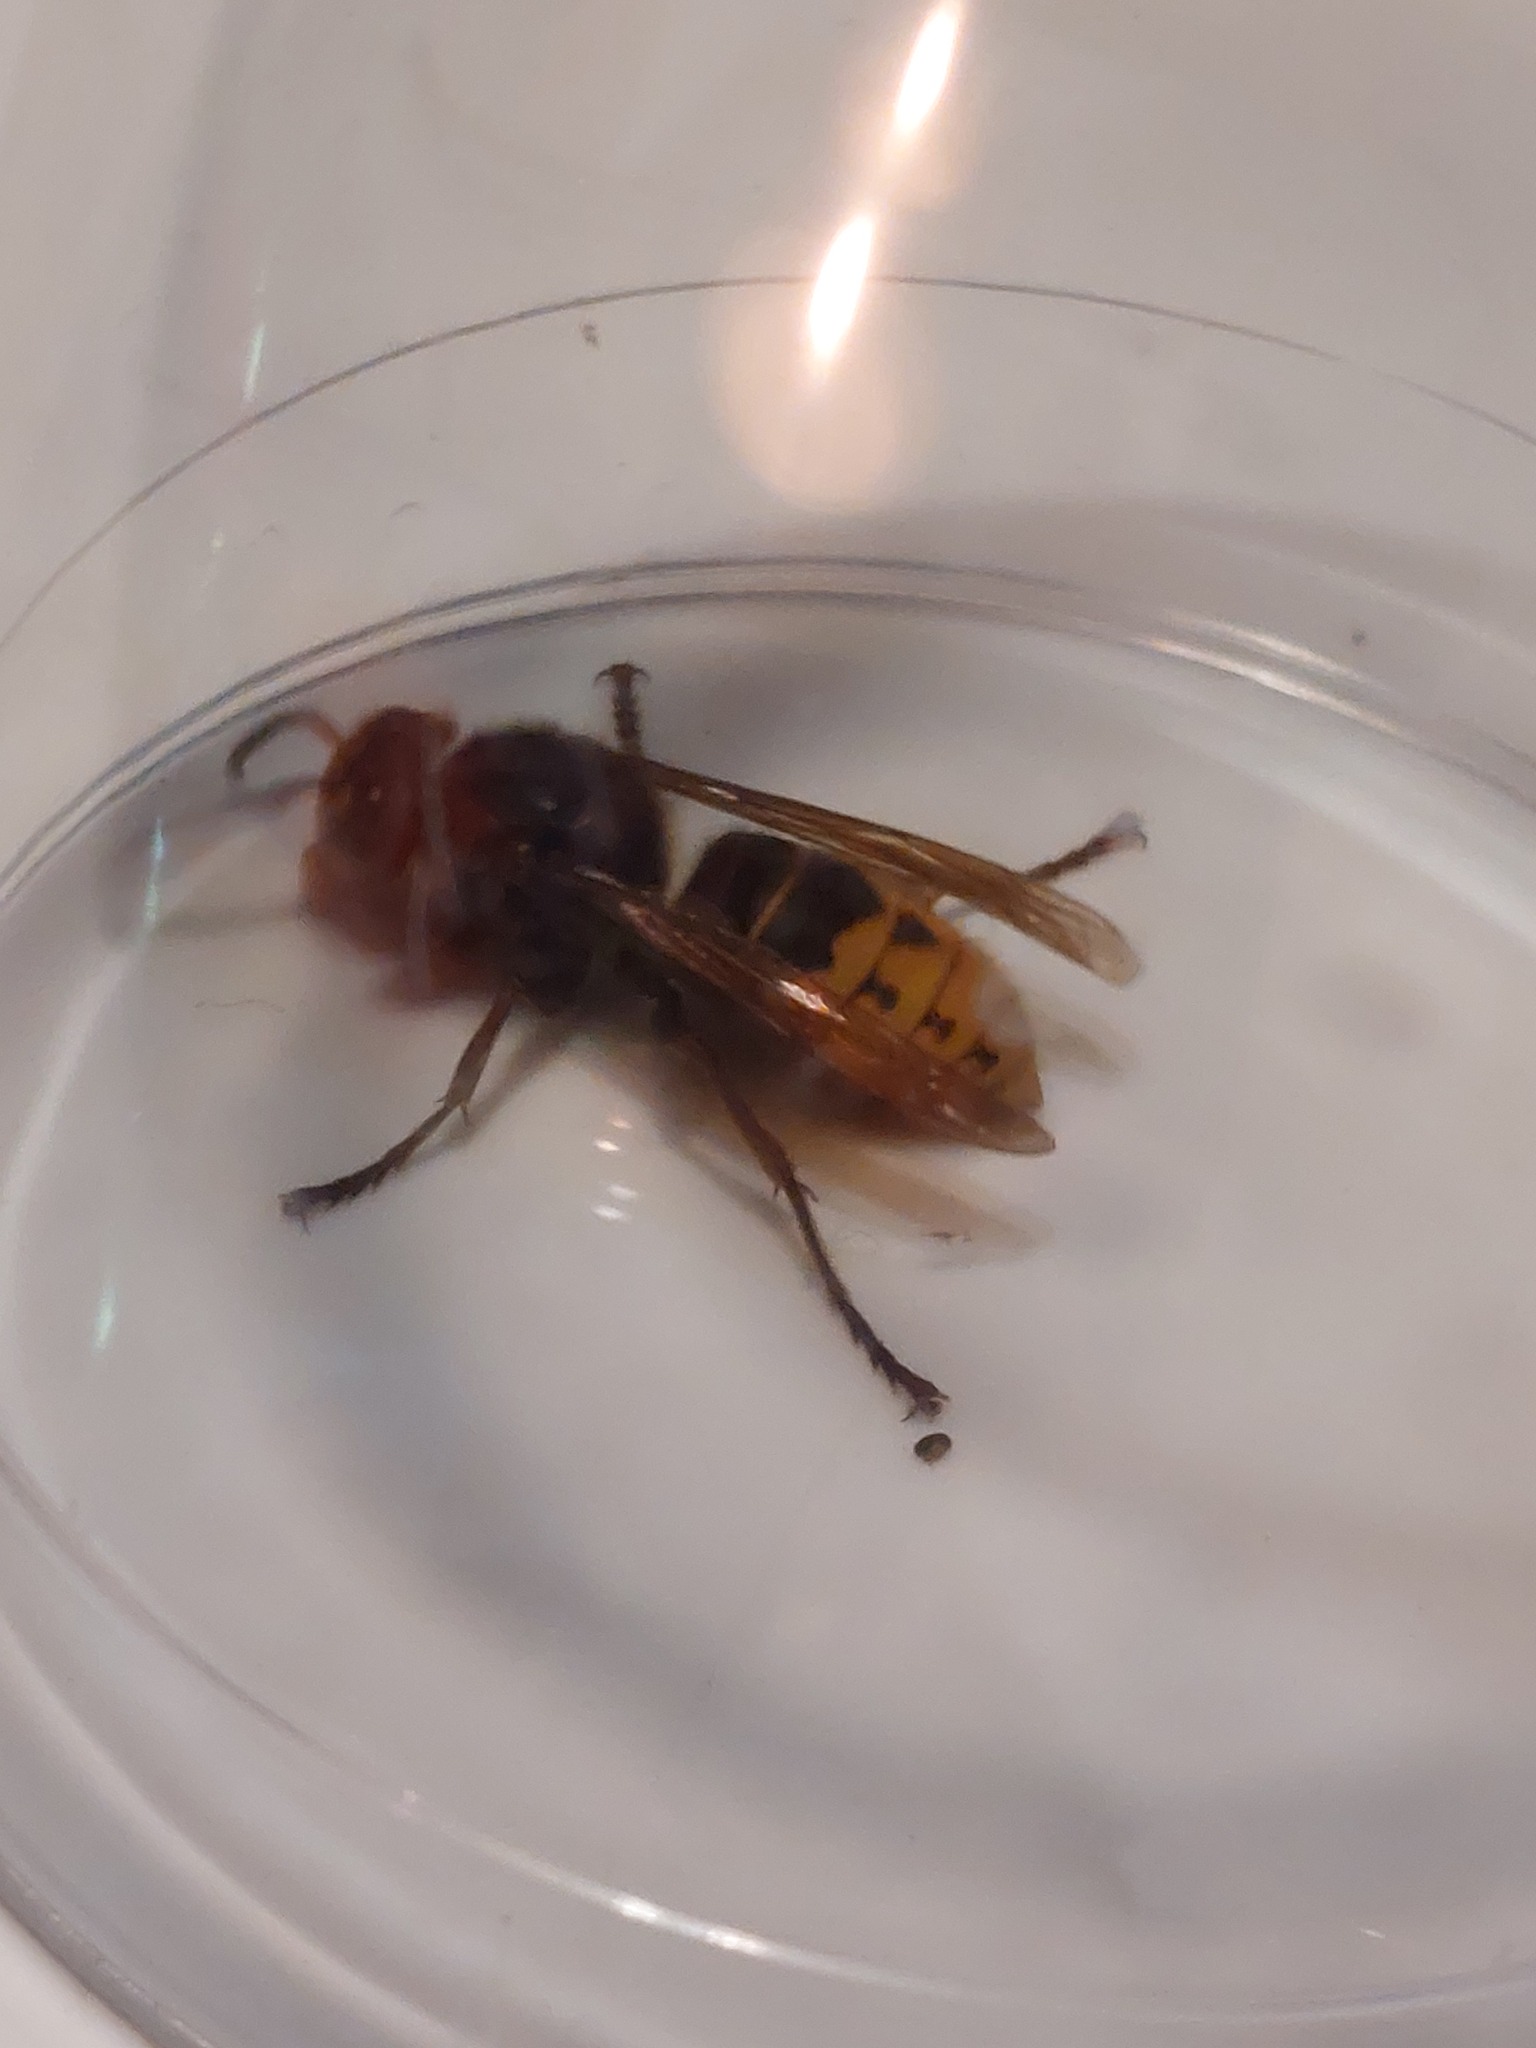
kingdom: Animalia
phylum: Arthropoda
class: Insecta
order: Hymenoptera
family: Vespidae
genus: Vespa
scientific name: Vespa crabro
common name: Hornet
